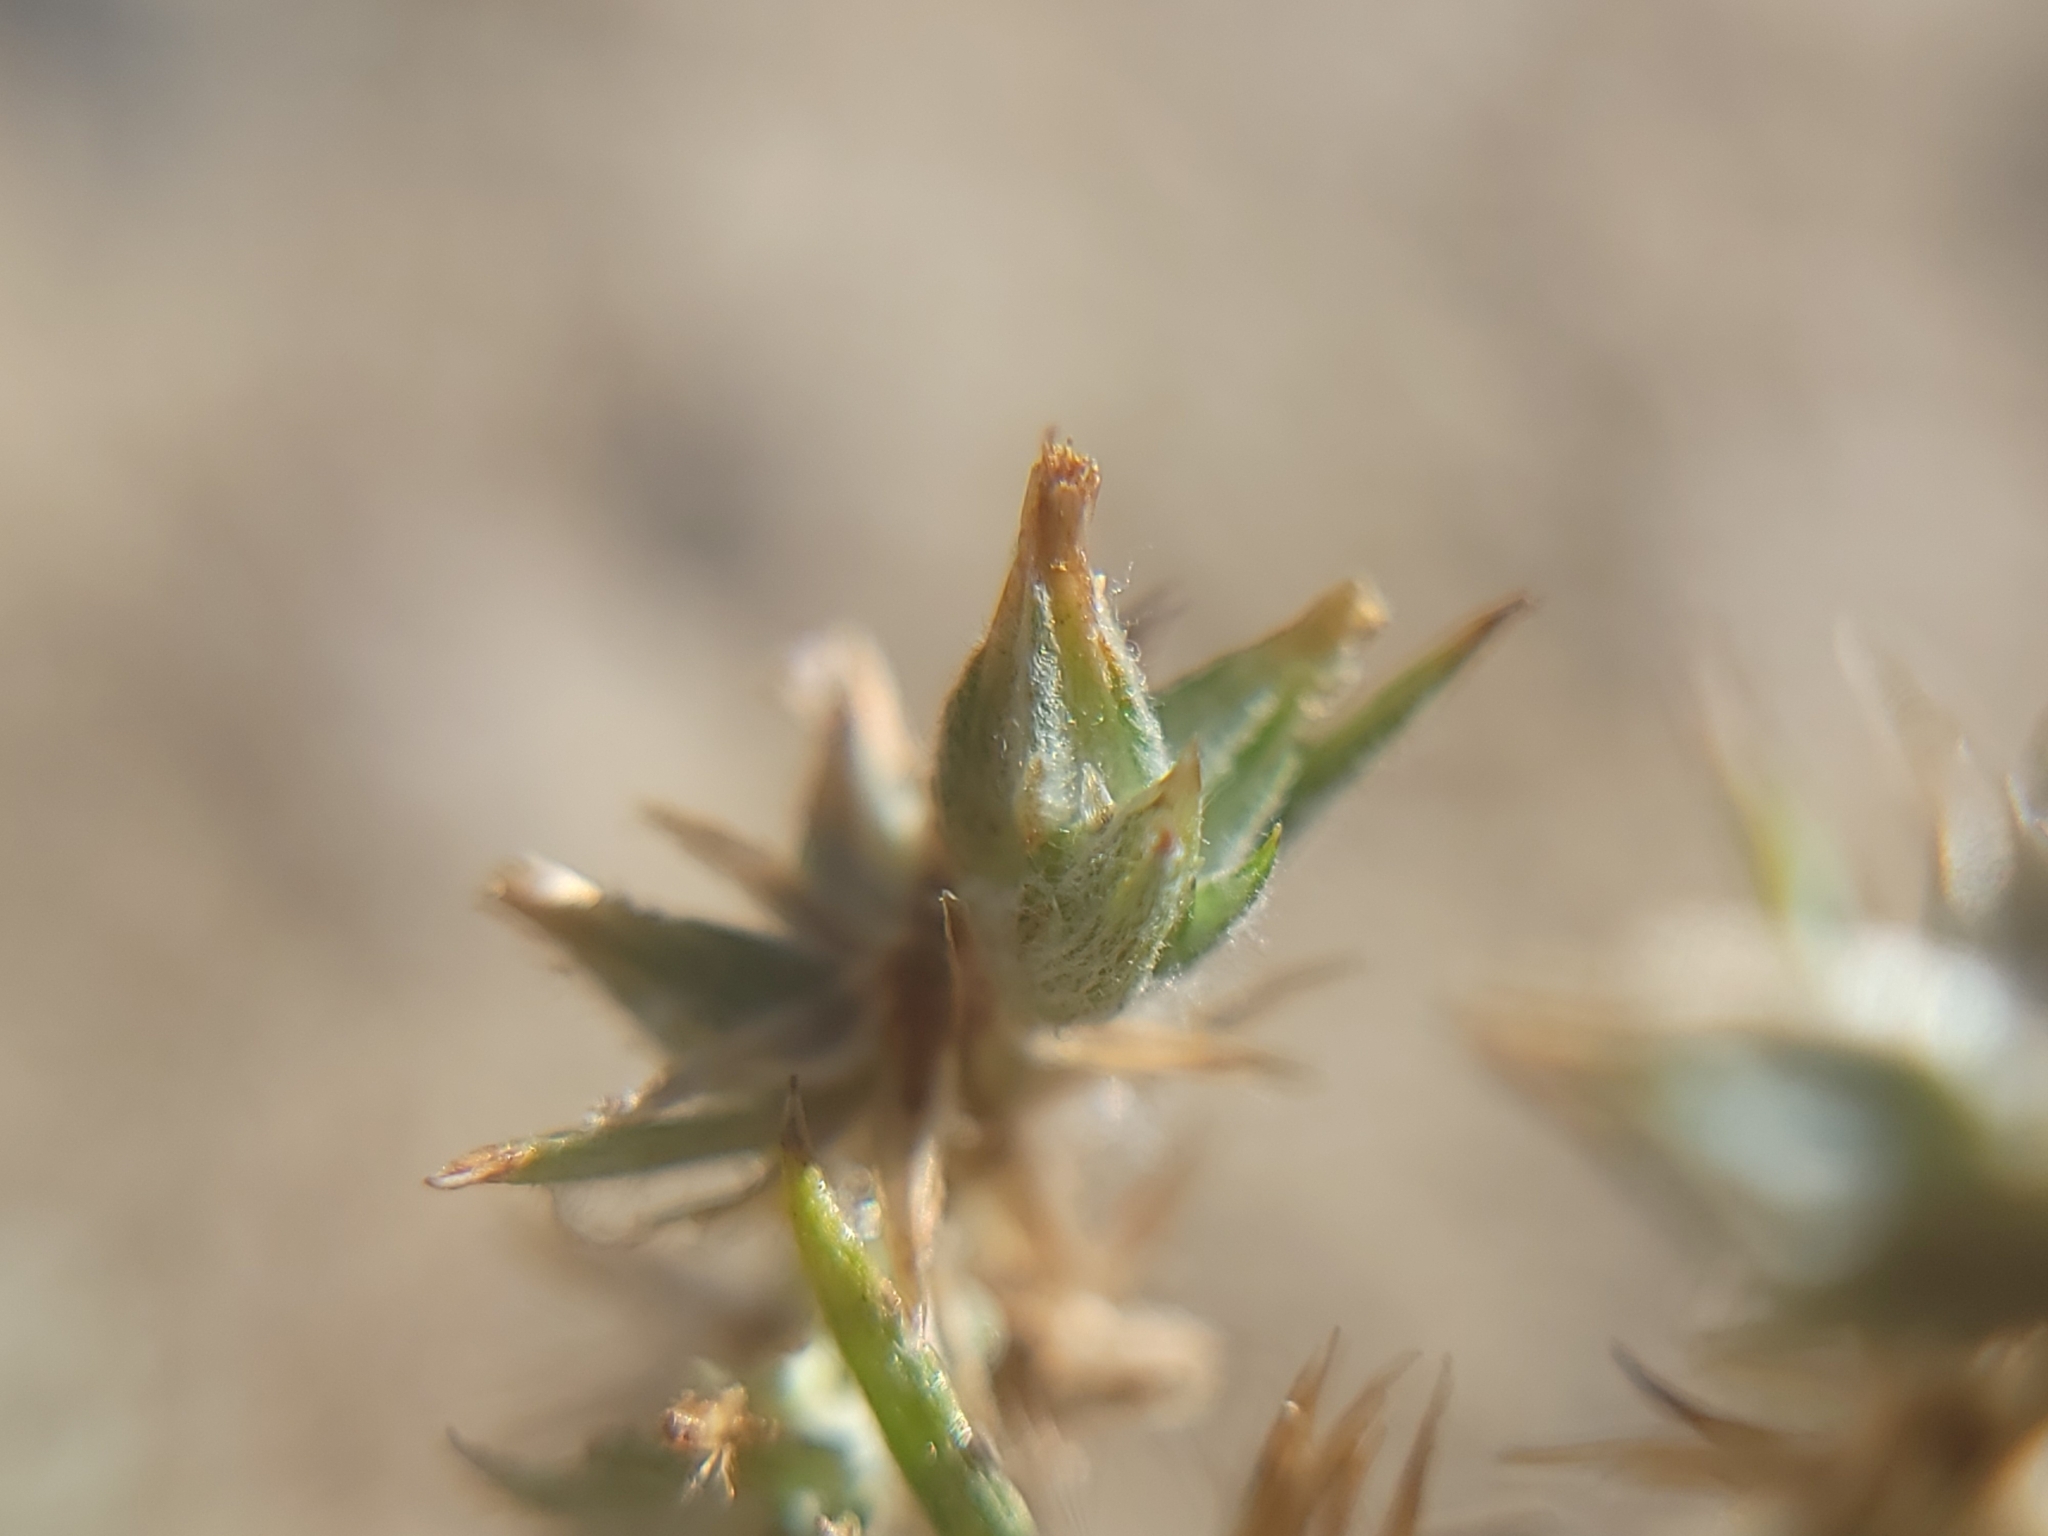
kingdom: Plantae
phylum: Tracheophyta
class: Magnoliopsida
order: Asterales
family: Asteraceae
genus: Logfia
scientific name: Logfia gallica
